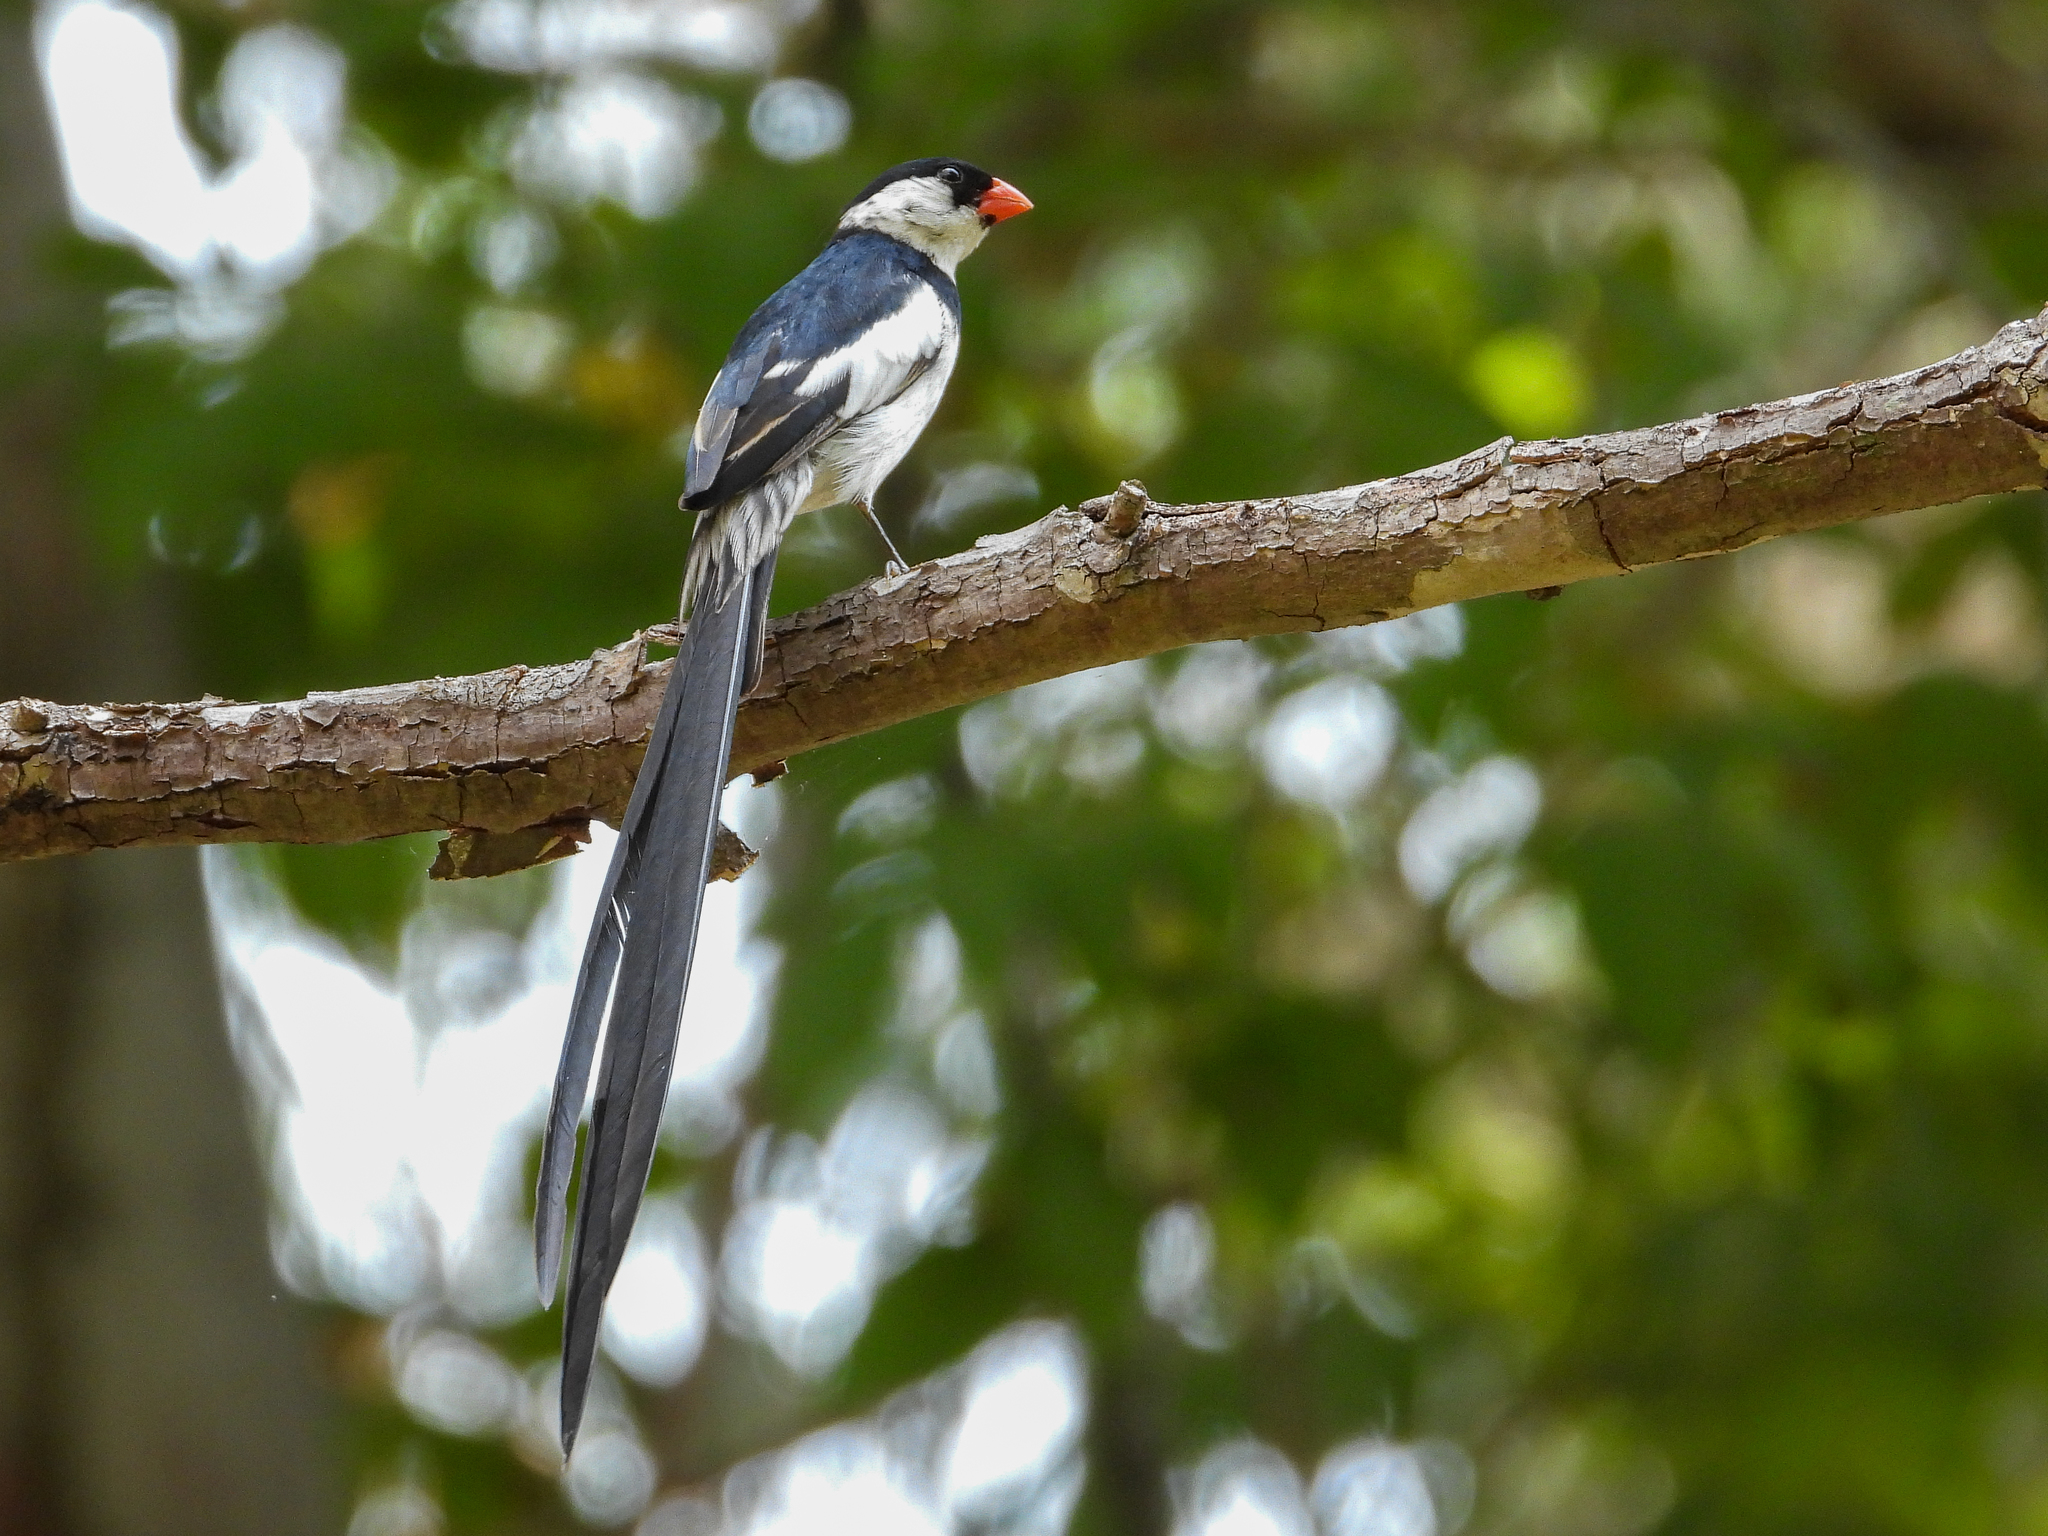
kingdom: Animalia
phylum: Chordata
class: Aves
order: Passeriformes
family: Viduidae
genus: Vidua
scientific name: Vidua macroura
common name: Pin-tailed whydah
